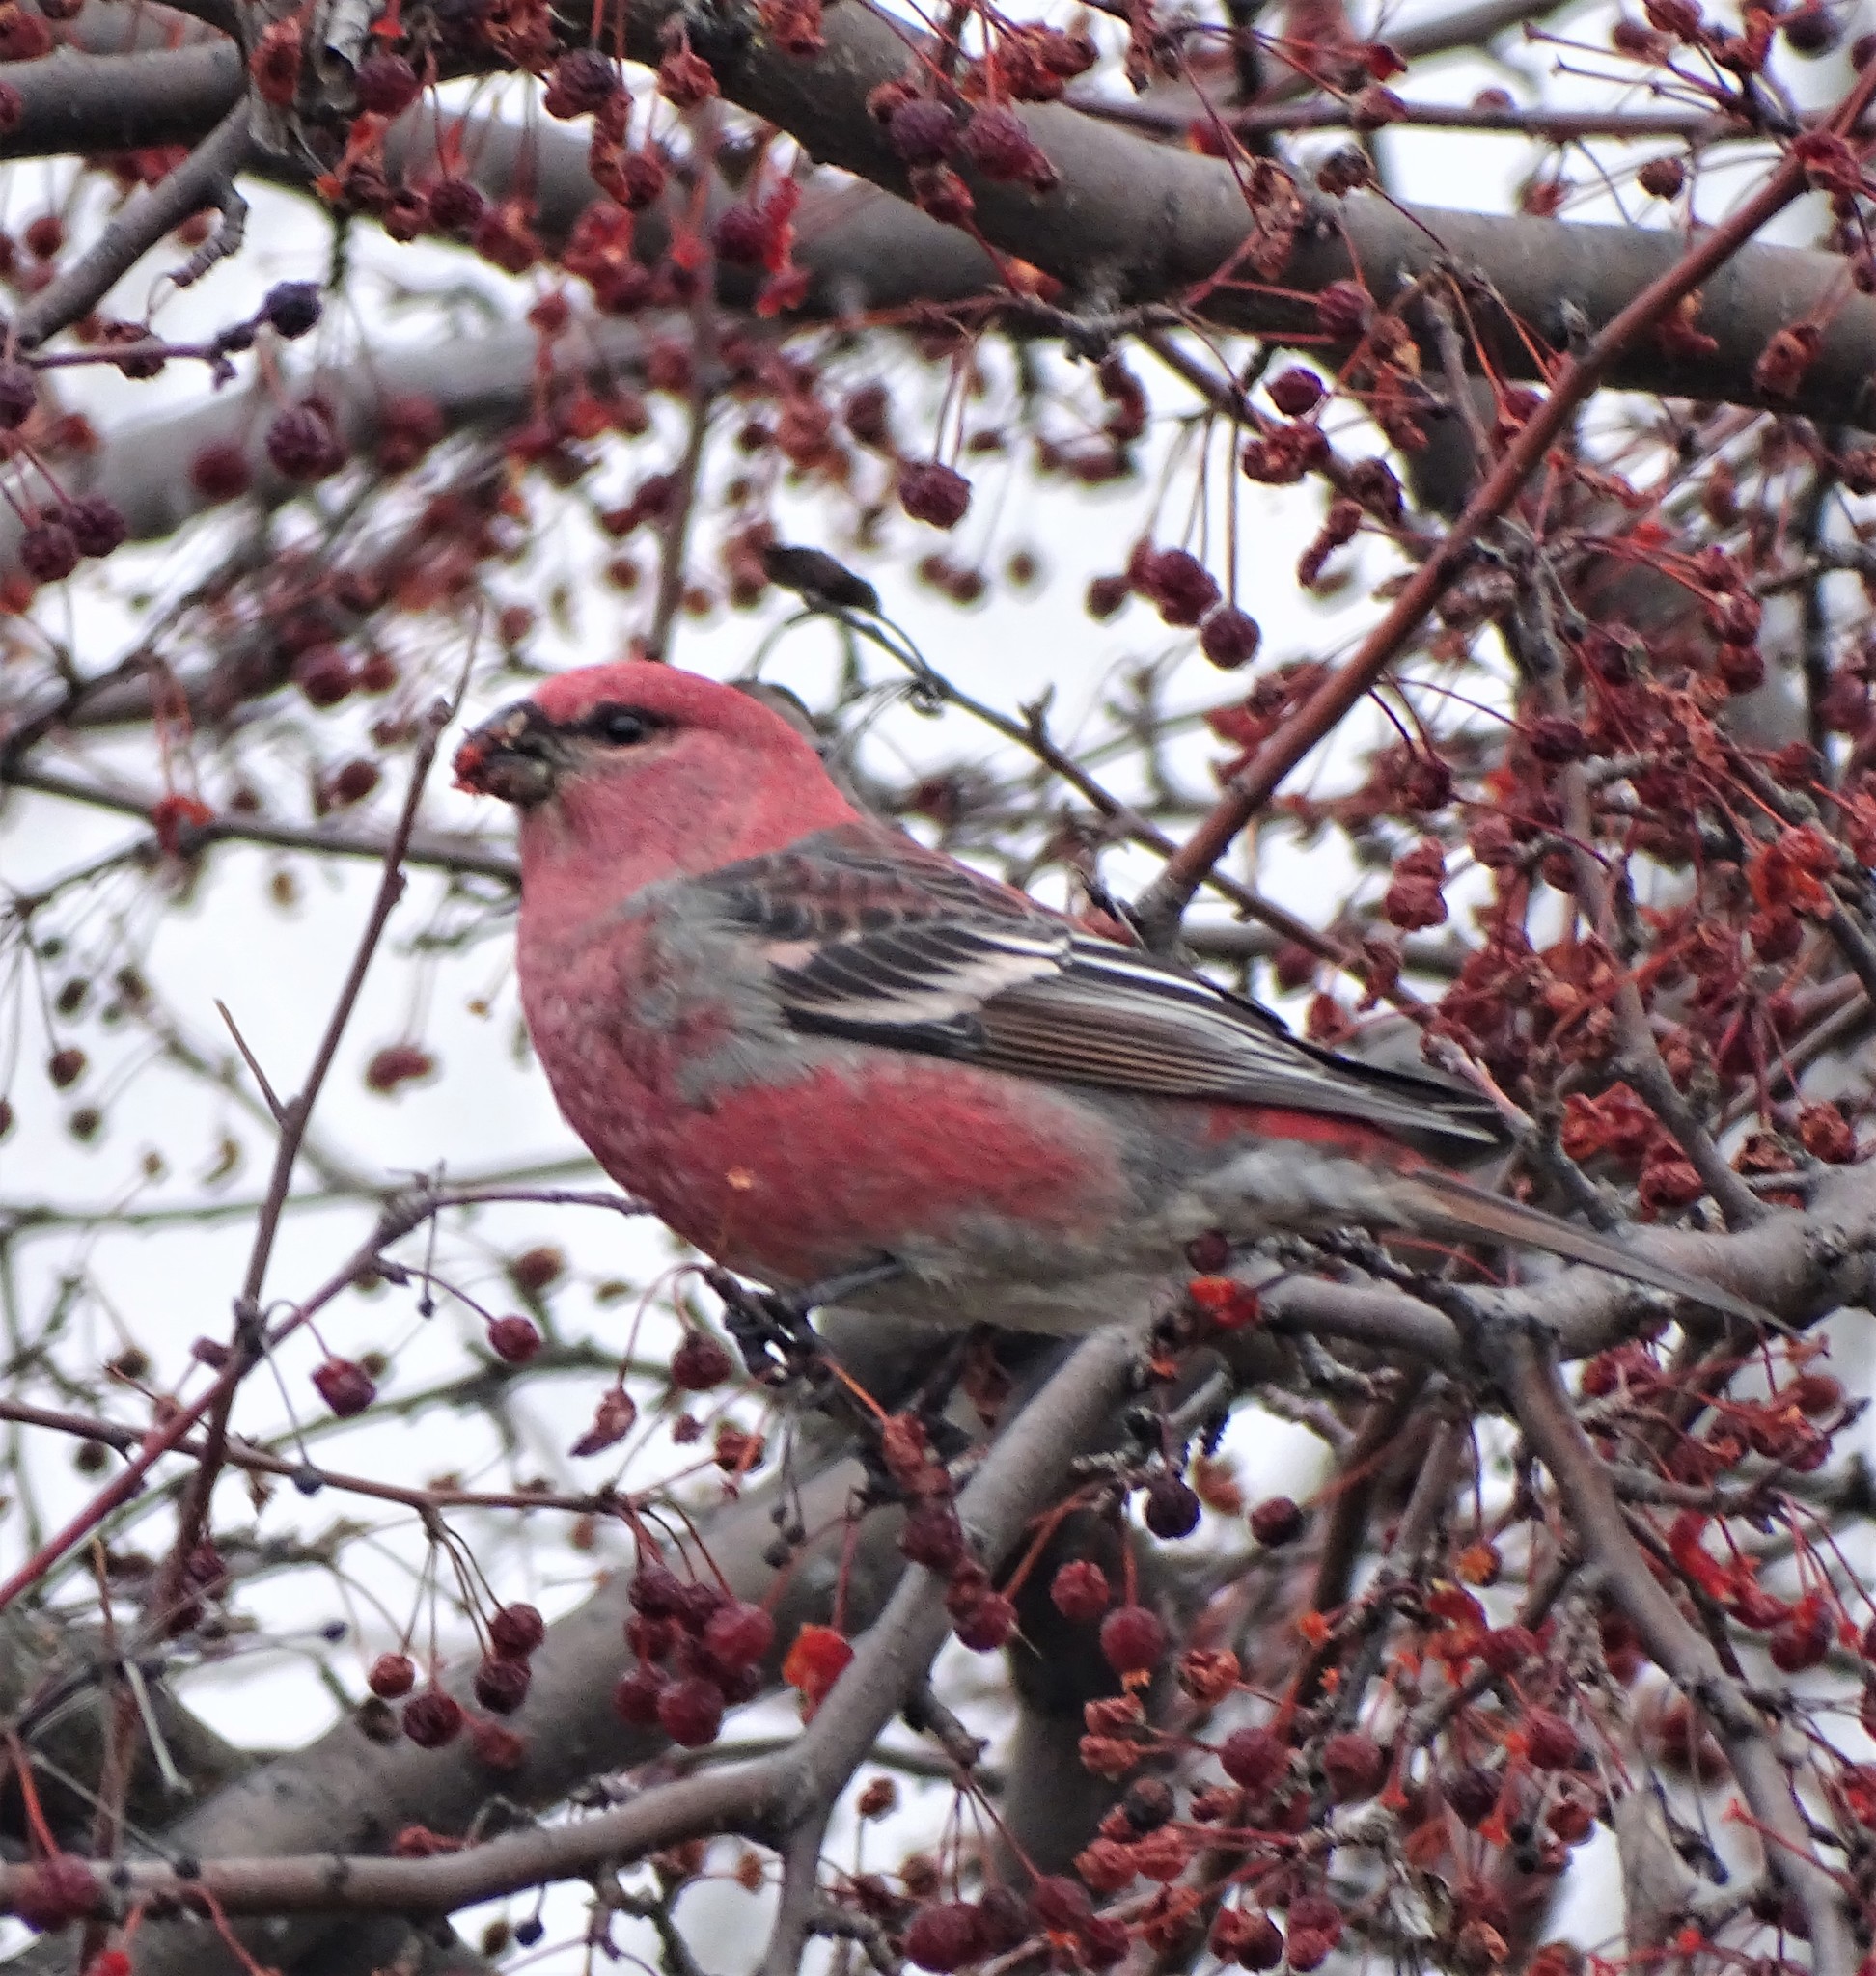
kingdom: Animalia
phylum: Chordata
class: Aves
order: Passeriformes
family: Fringillidae
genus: Pinicola
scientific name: Pinicola enucleator
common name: Pine grosbeak
